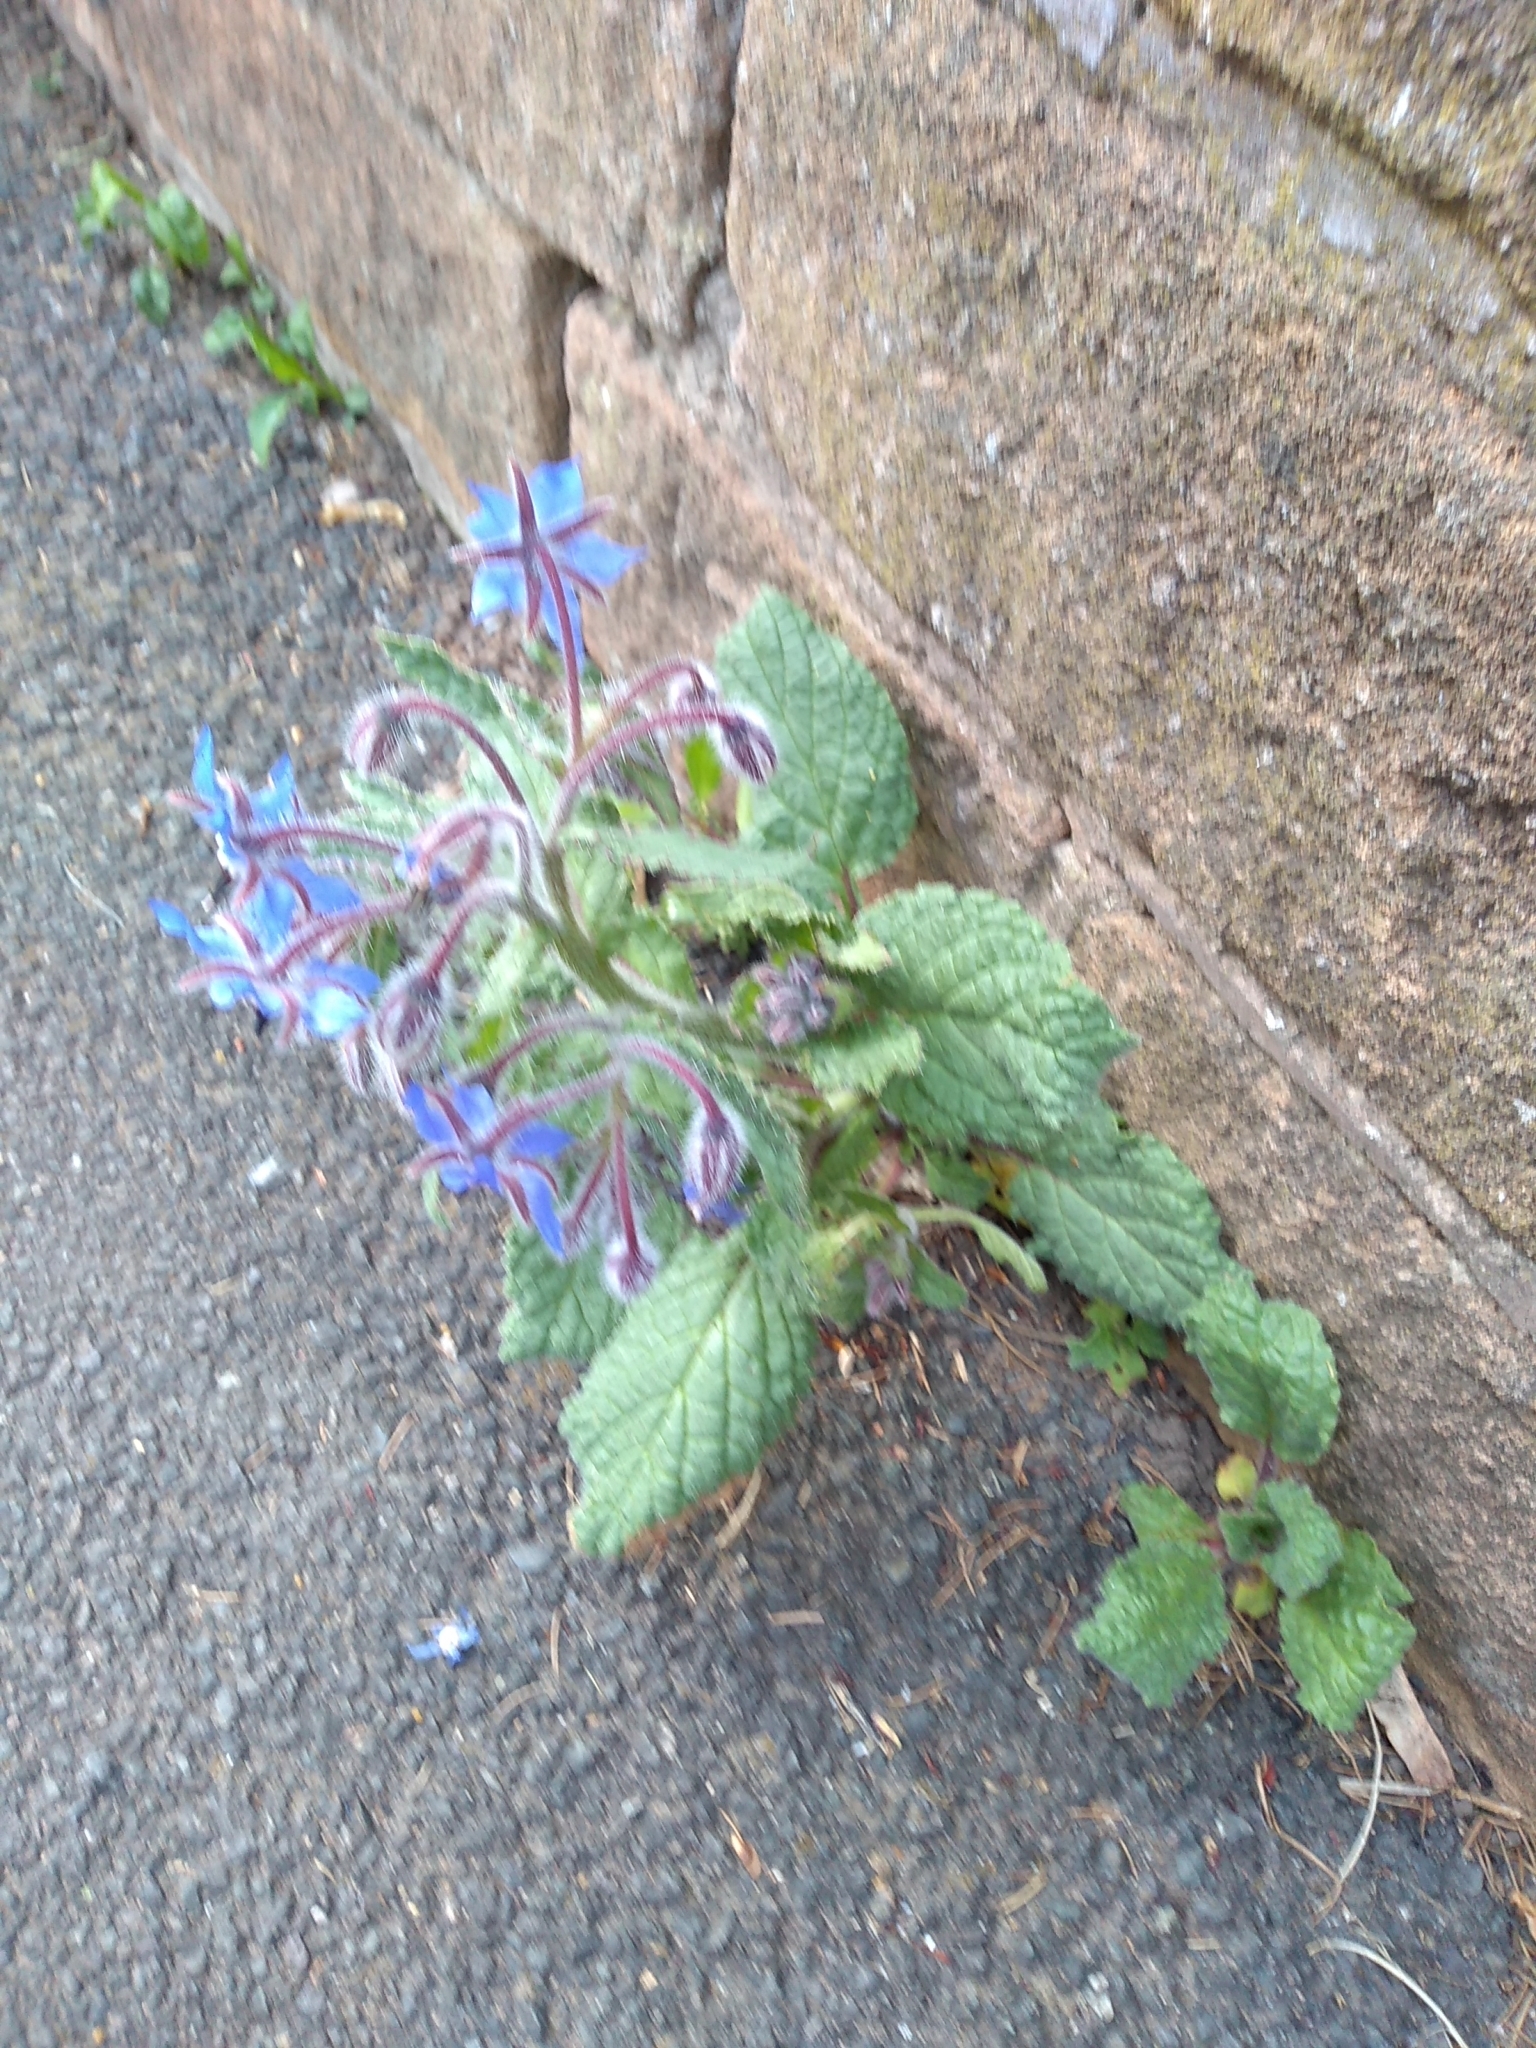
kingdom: Plantae
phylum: Tracheophyta
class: Magnoliopsida
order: Boraginales
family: Boraginaceae
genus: Borago
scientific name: Borago officinalis
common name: Borage
